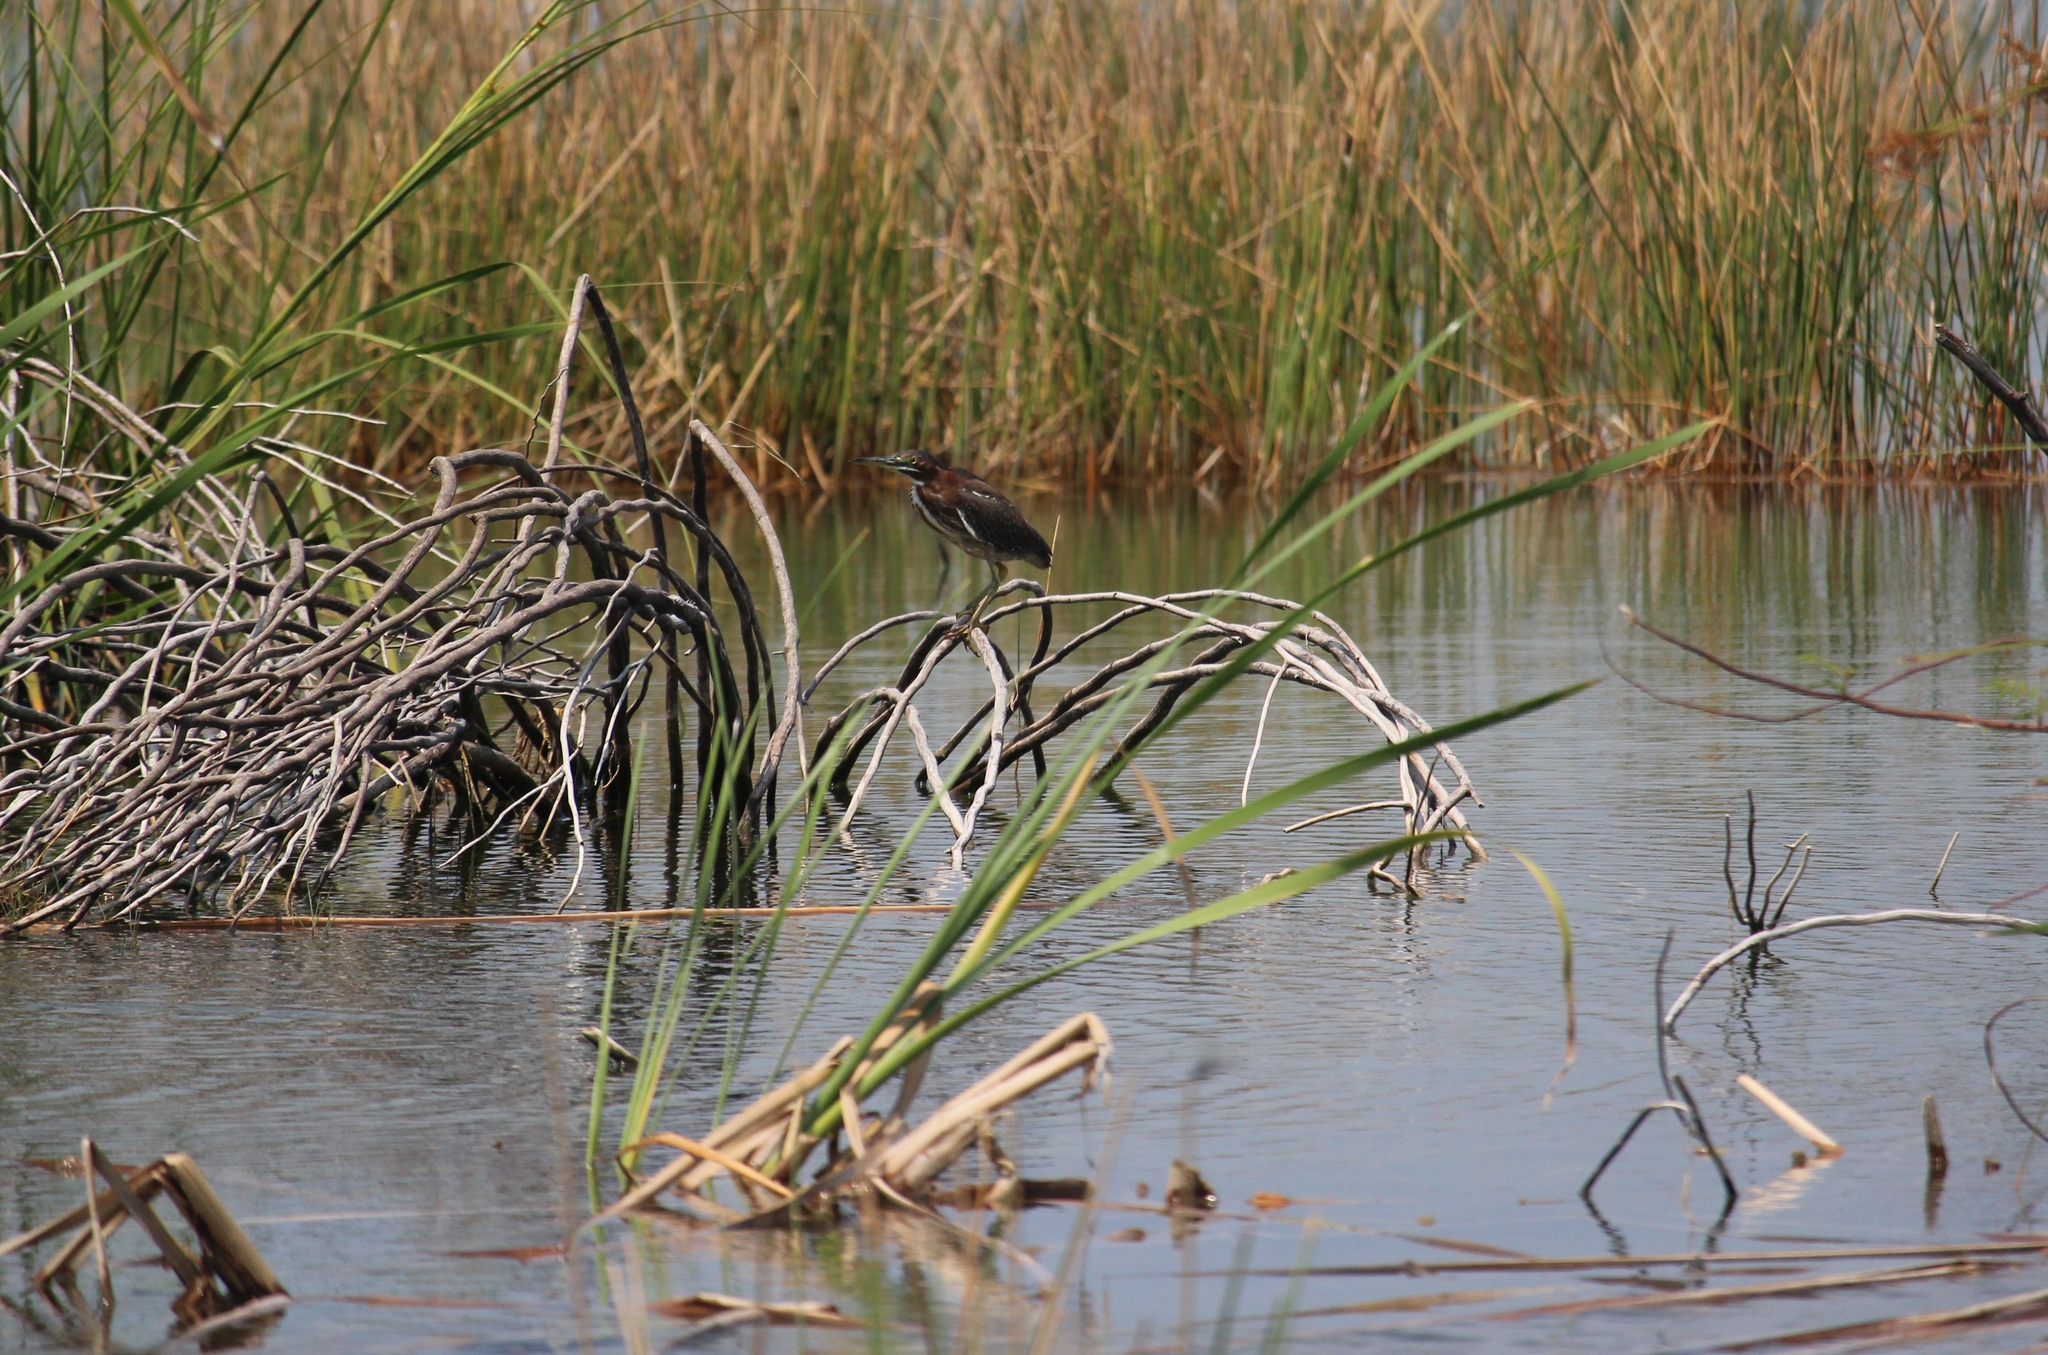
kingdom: Animalia
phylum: Chordata
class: Aves
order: Pelecaniformes
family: Ardeidae
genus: Butorides
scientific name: Butorides virescens
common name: Green heron
